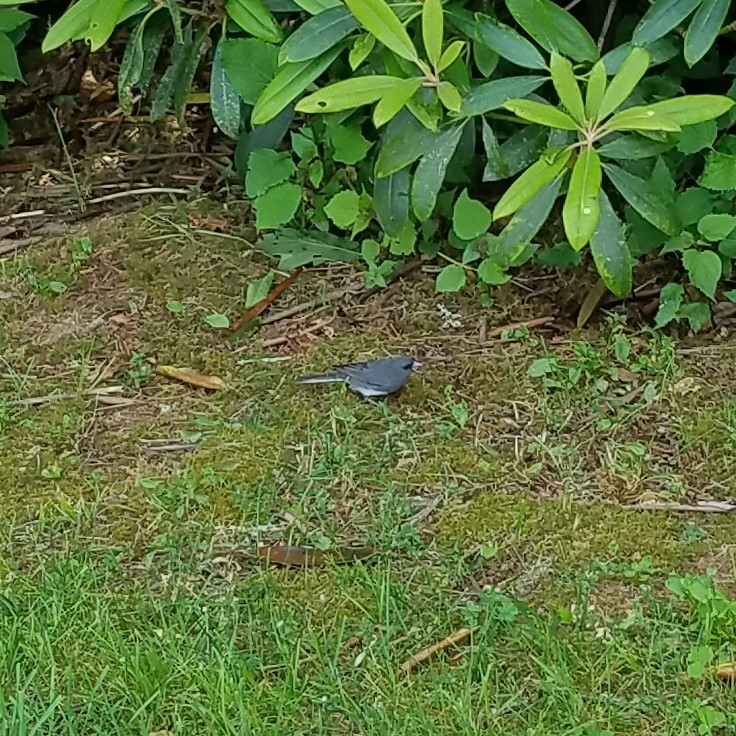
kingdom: Animalia
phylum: Chordata
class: Aves
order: Passeriformes
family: Passerellidae
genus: Junco
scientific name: Junco hyemalis
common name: Dark-eyed junco
